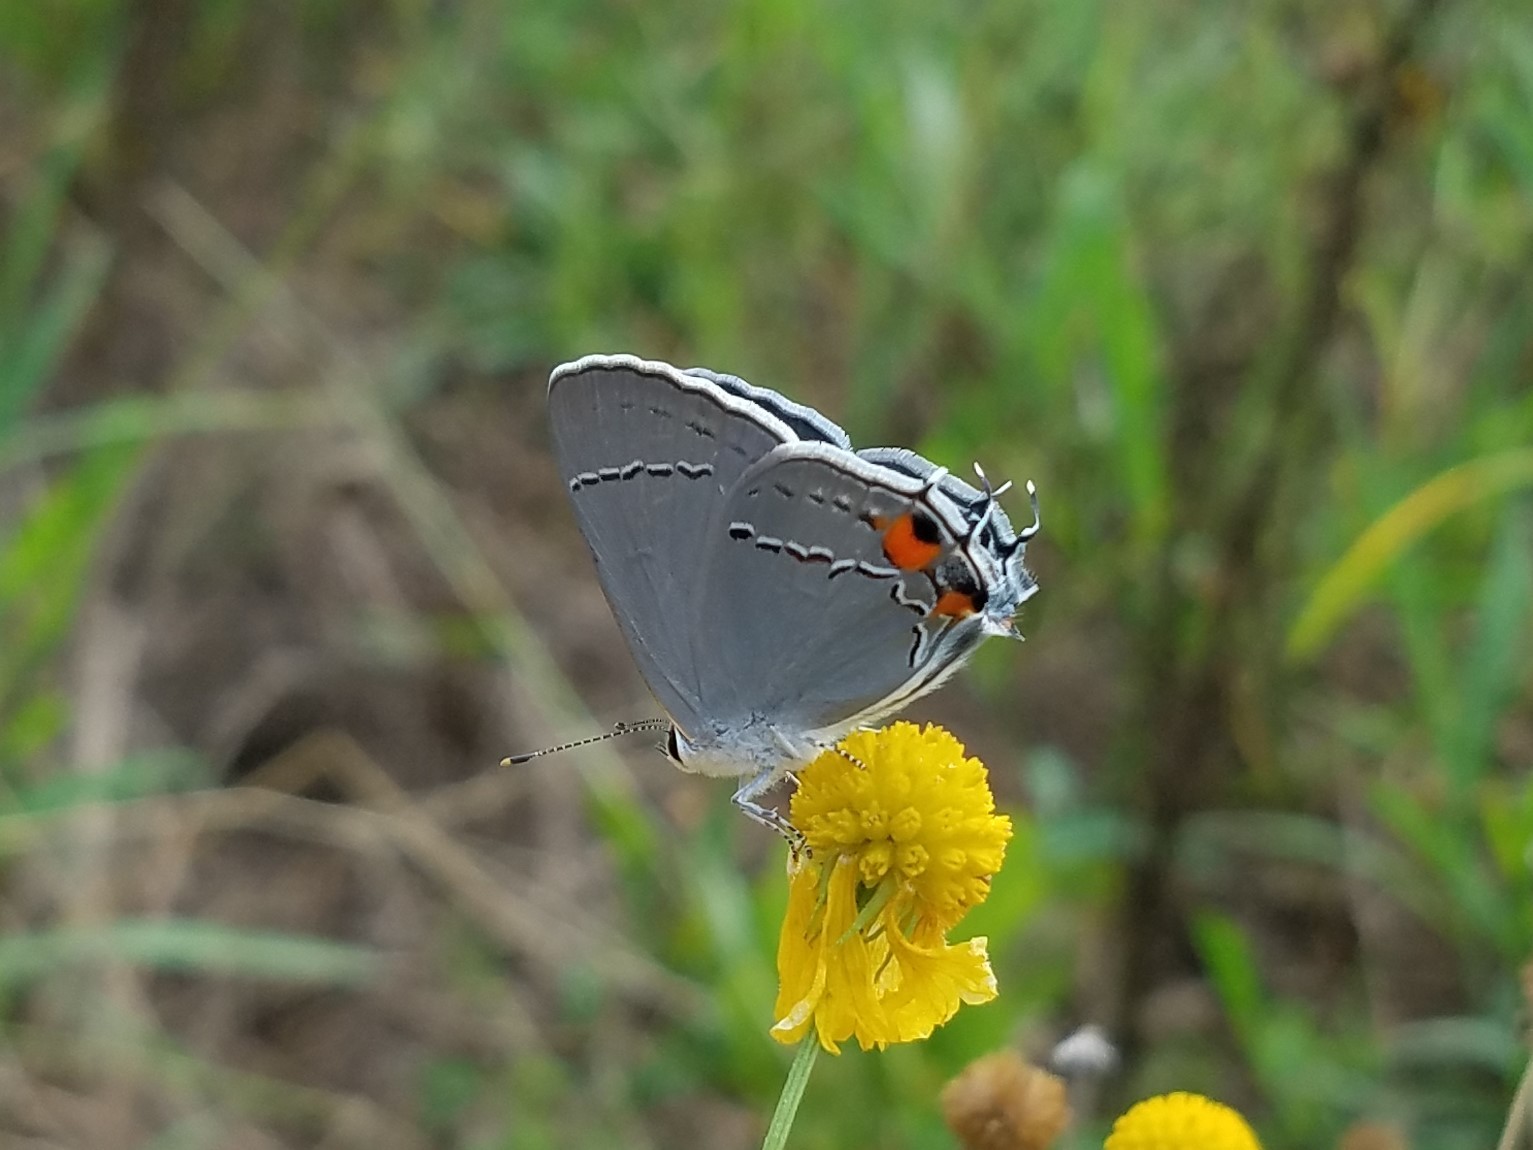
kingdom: Animalia
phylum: Arthropoda
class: Insecta
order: Lepidoptera
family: Lycaenidae
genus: Strymon
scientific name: Strymon melinus
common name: Gray hairstreak
